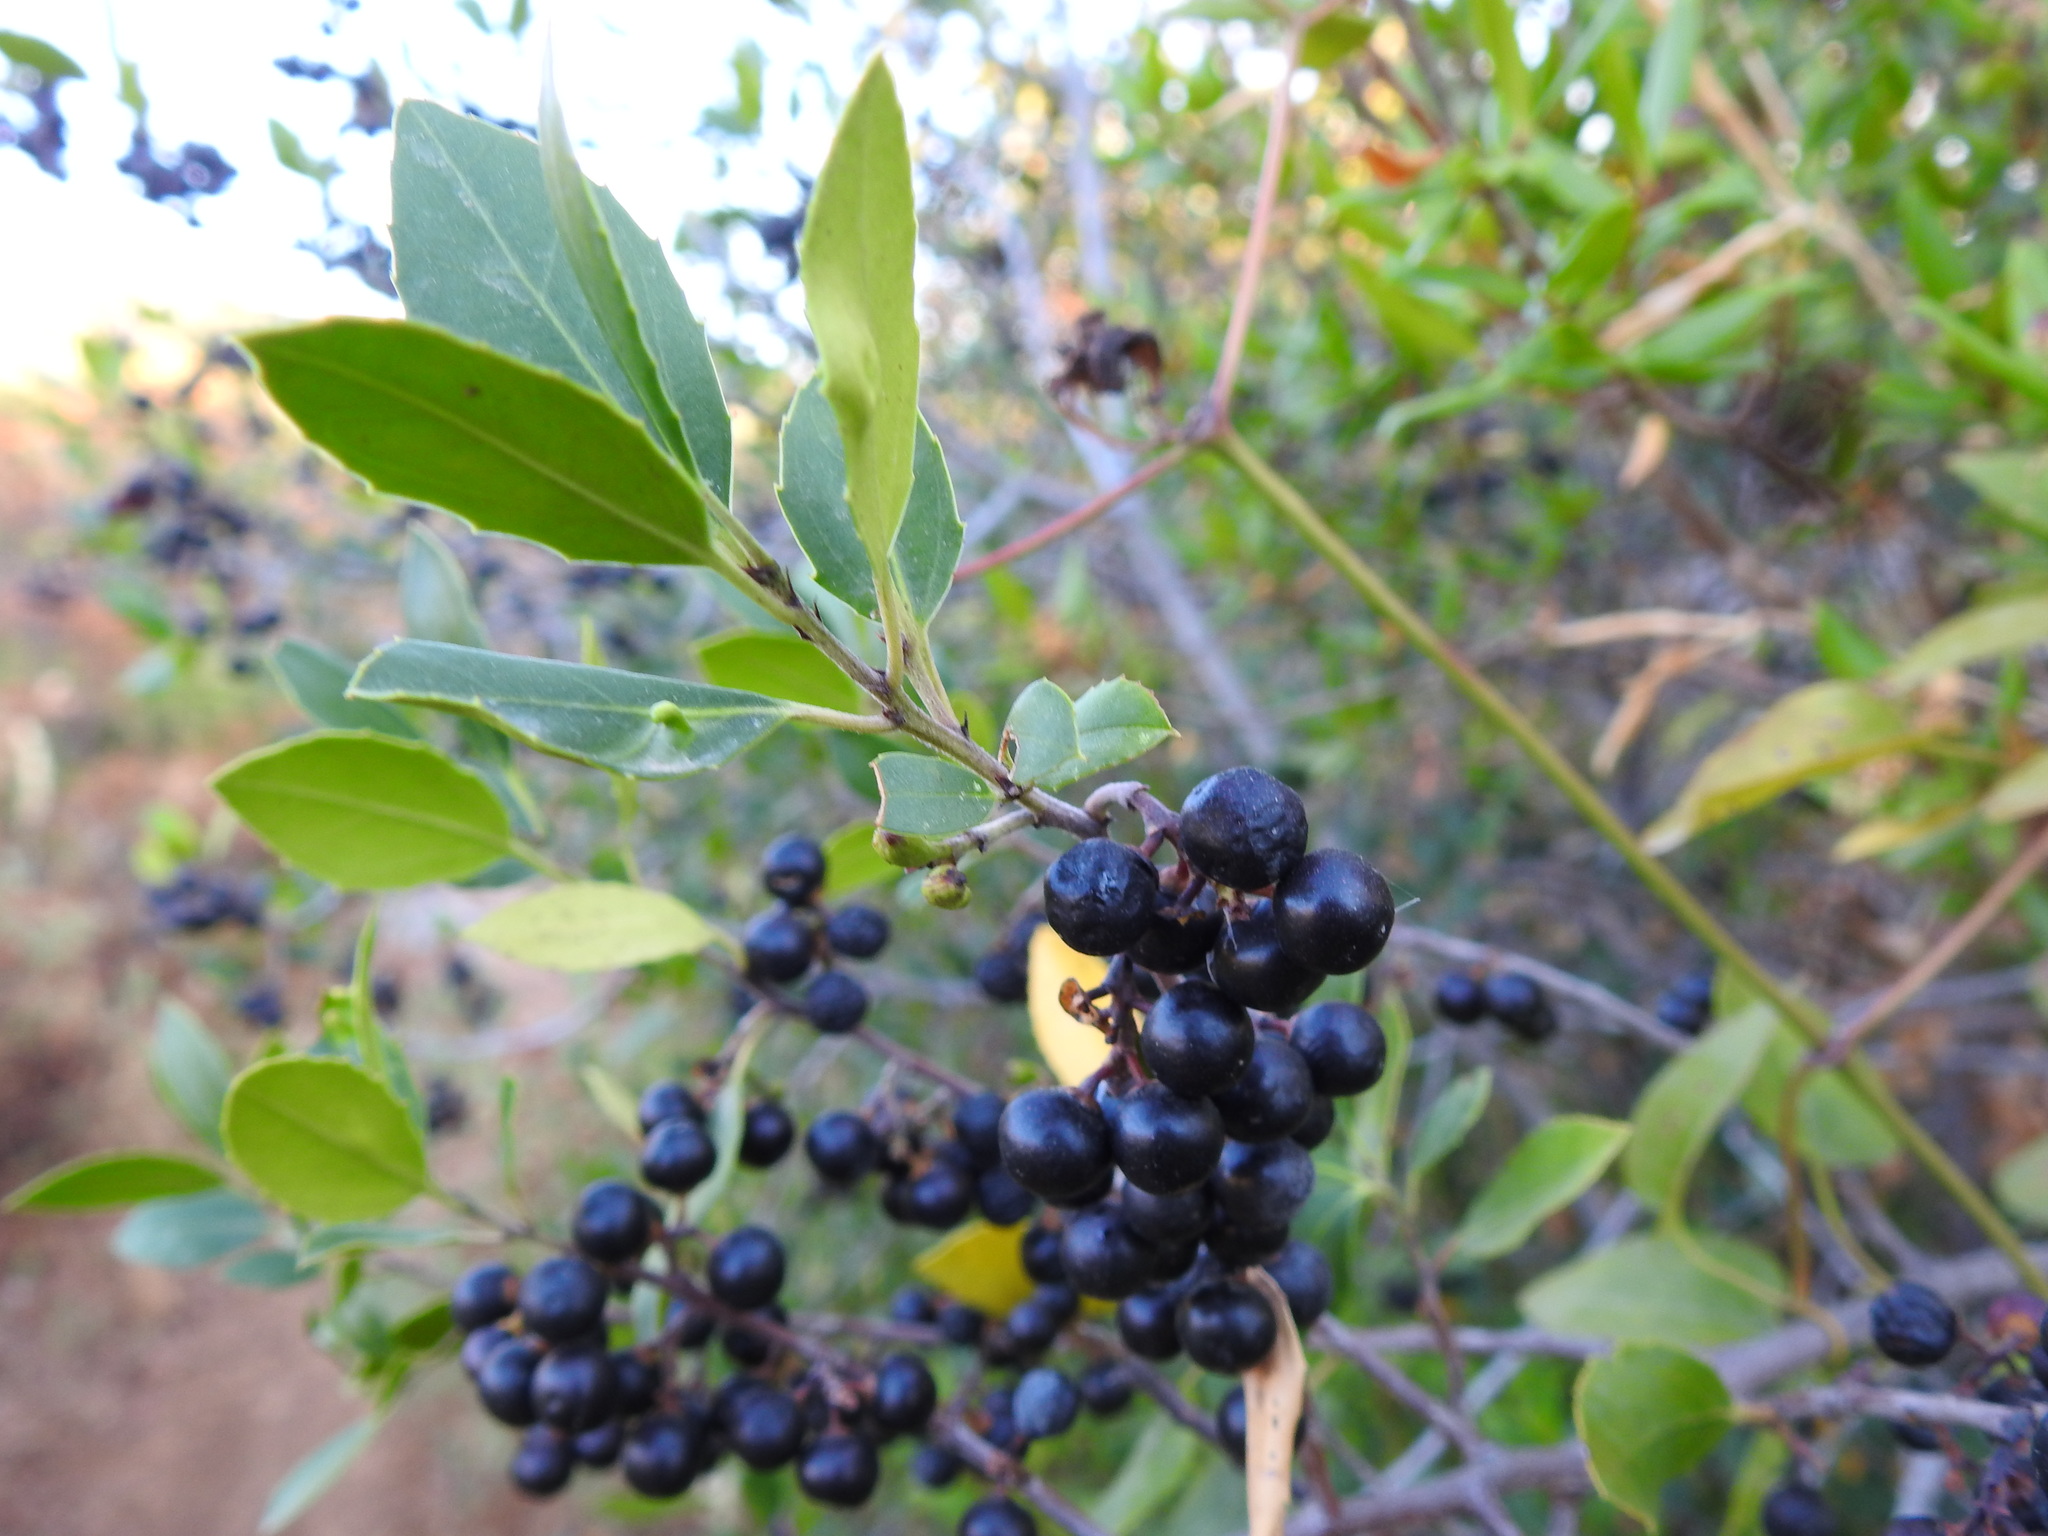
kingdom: Plantae
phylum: Tracheophyta
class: Magnoliopsida
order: Rosales
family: Rhamnaceae
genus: Rhamnus
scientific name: Rhamnus alaternus
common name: Mediterranean buckthorn
